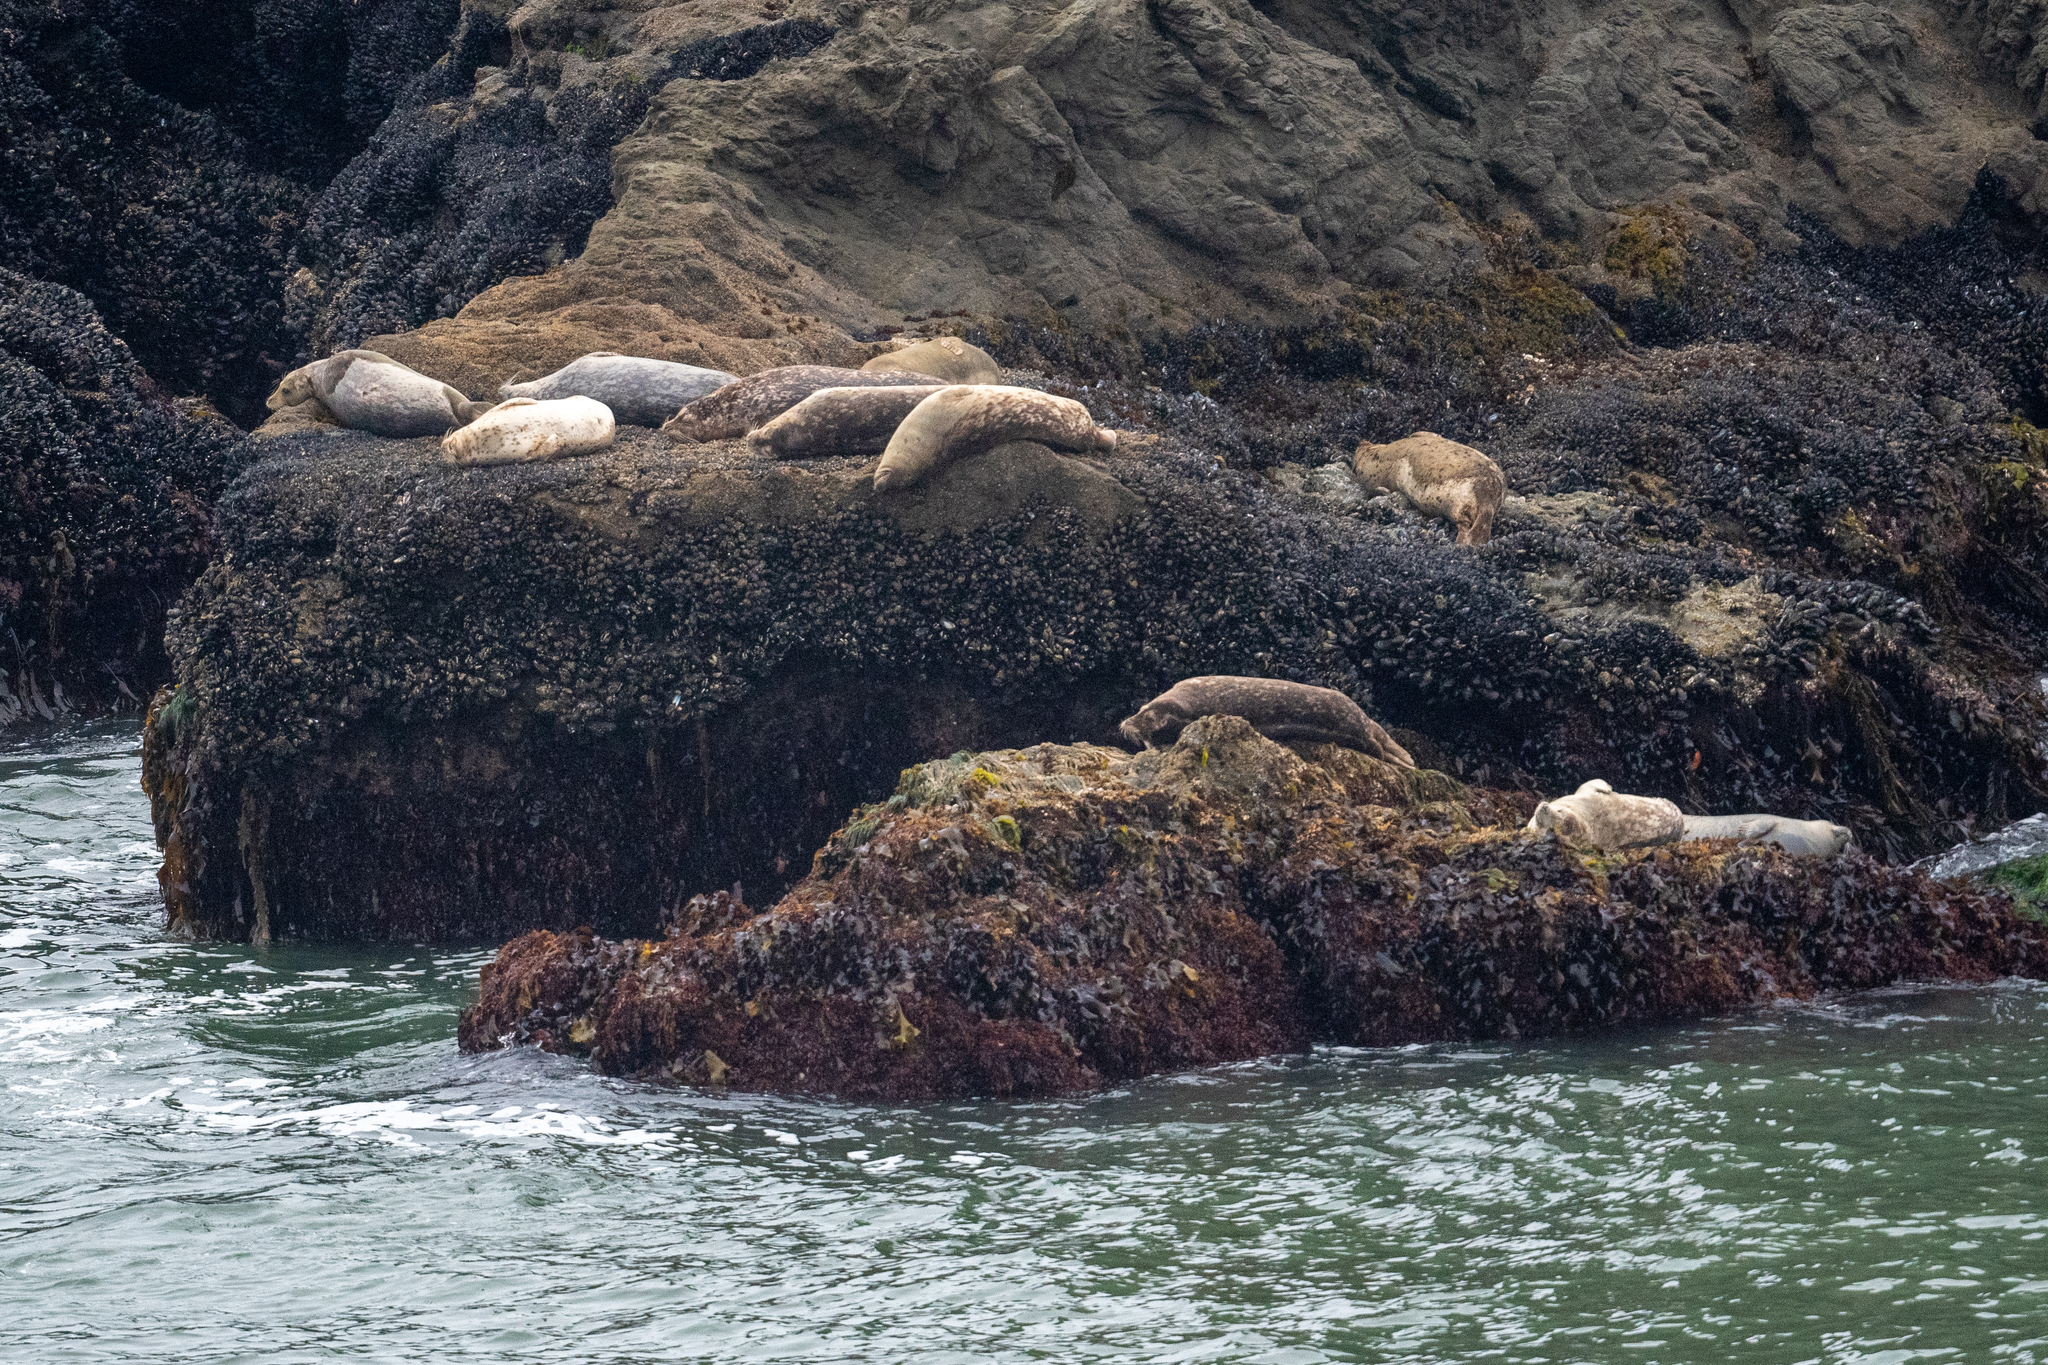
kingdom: Animalia
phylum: Chordata
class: Mammalia
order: Carnivora
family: Phocidae
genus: Phoca
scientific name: Phoca vitulina
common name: Harbor seal
